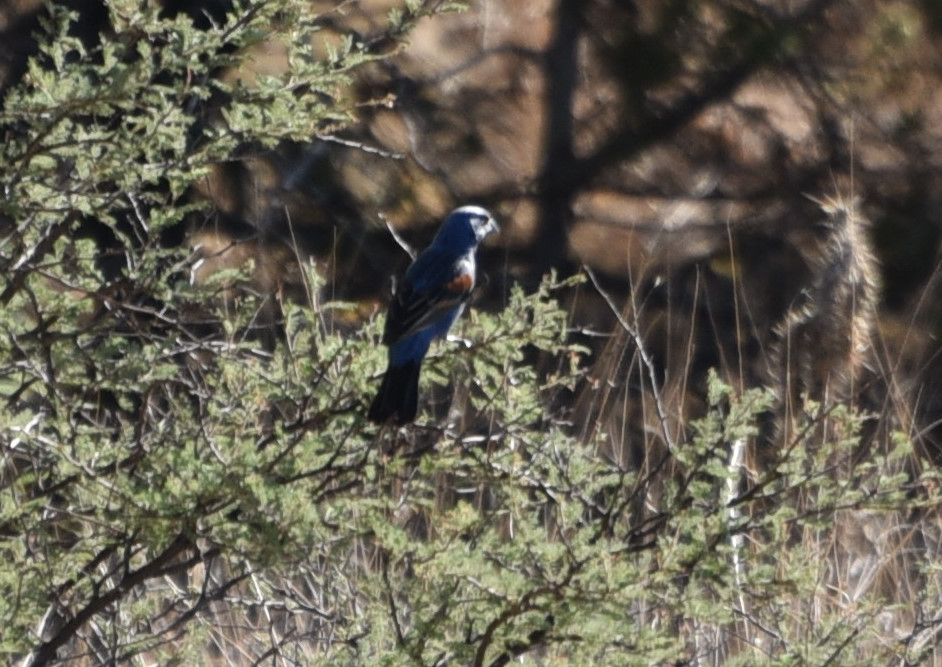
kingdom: Animalia
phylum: Chordata
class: Aves
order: Passeriformes
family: Cardinalidae
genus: Passerina
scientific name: Passerina caerulea
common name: Blue grosbeak
